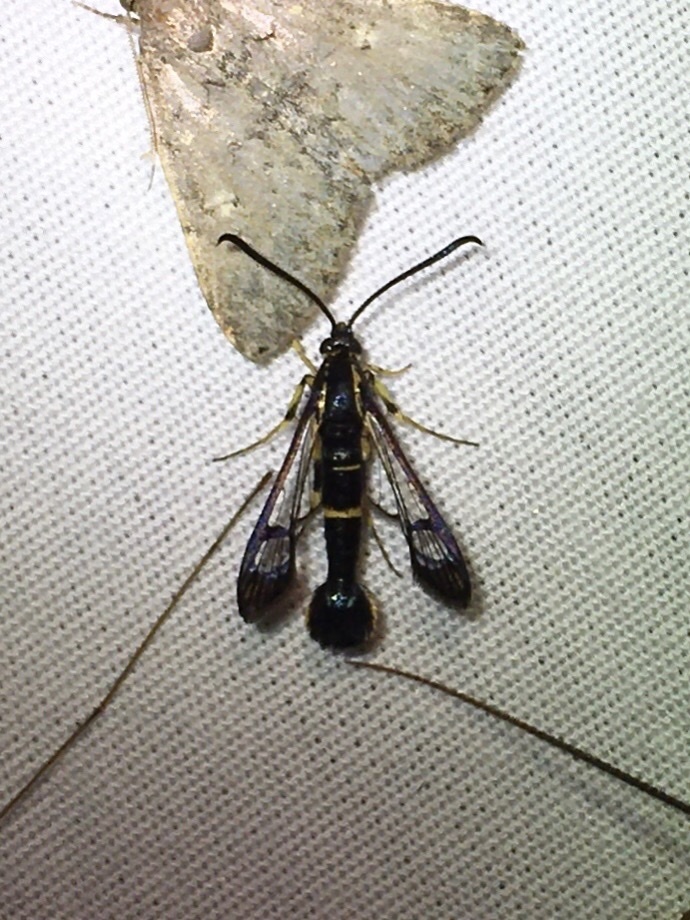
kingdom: Animalia
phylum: Arthropoda
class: Insecta
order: Lepidoptera
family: Sesiidae
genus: Synanthedon
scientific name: Synanthedon scitula
